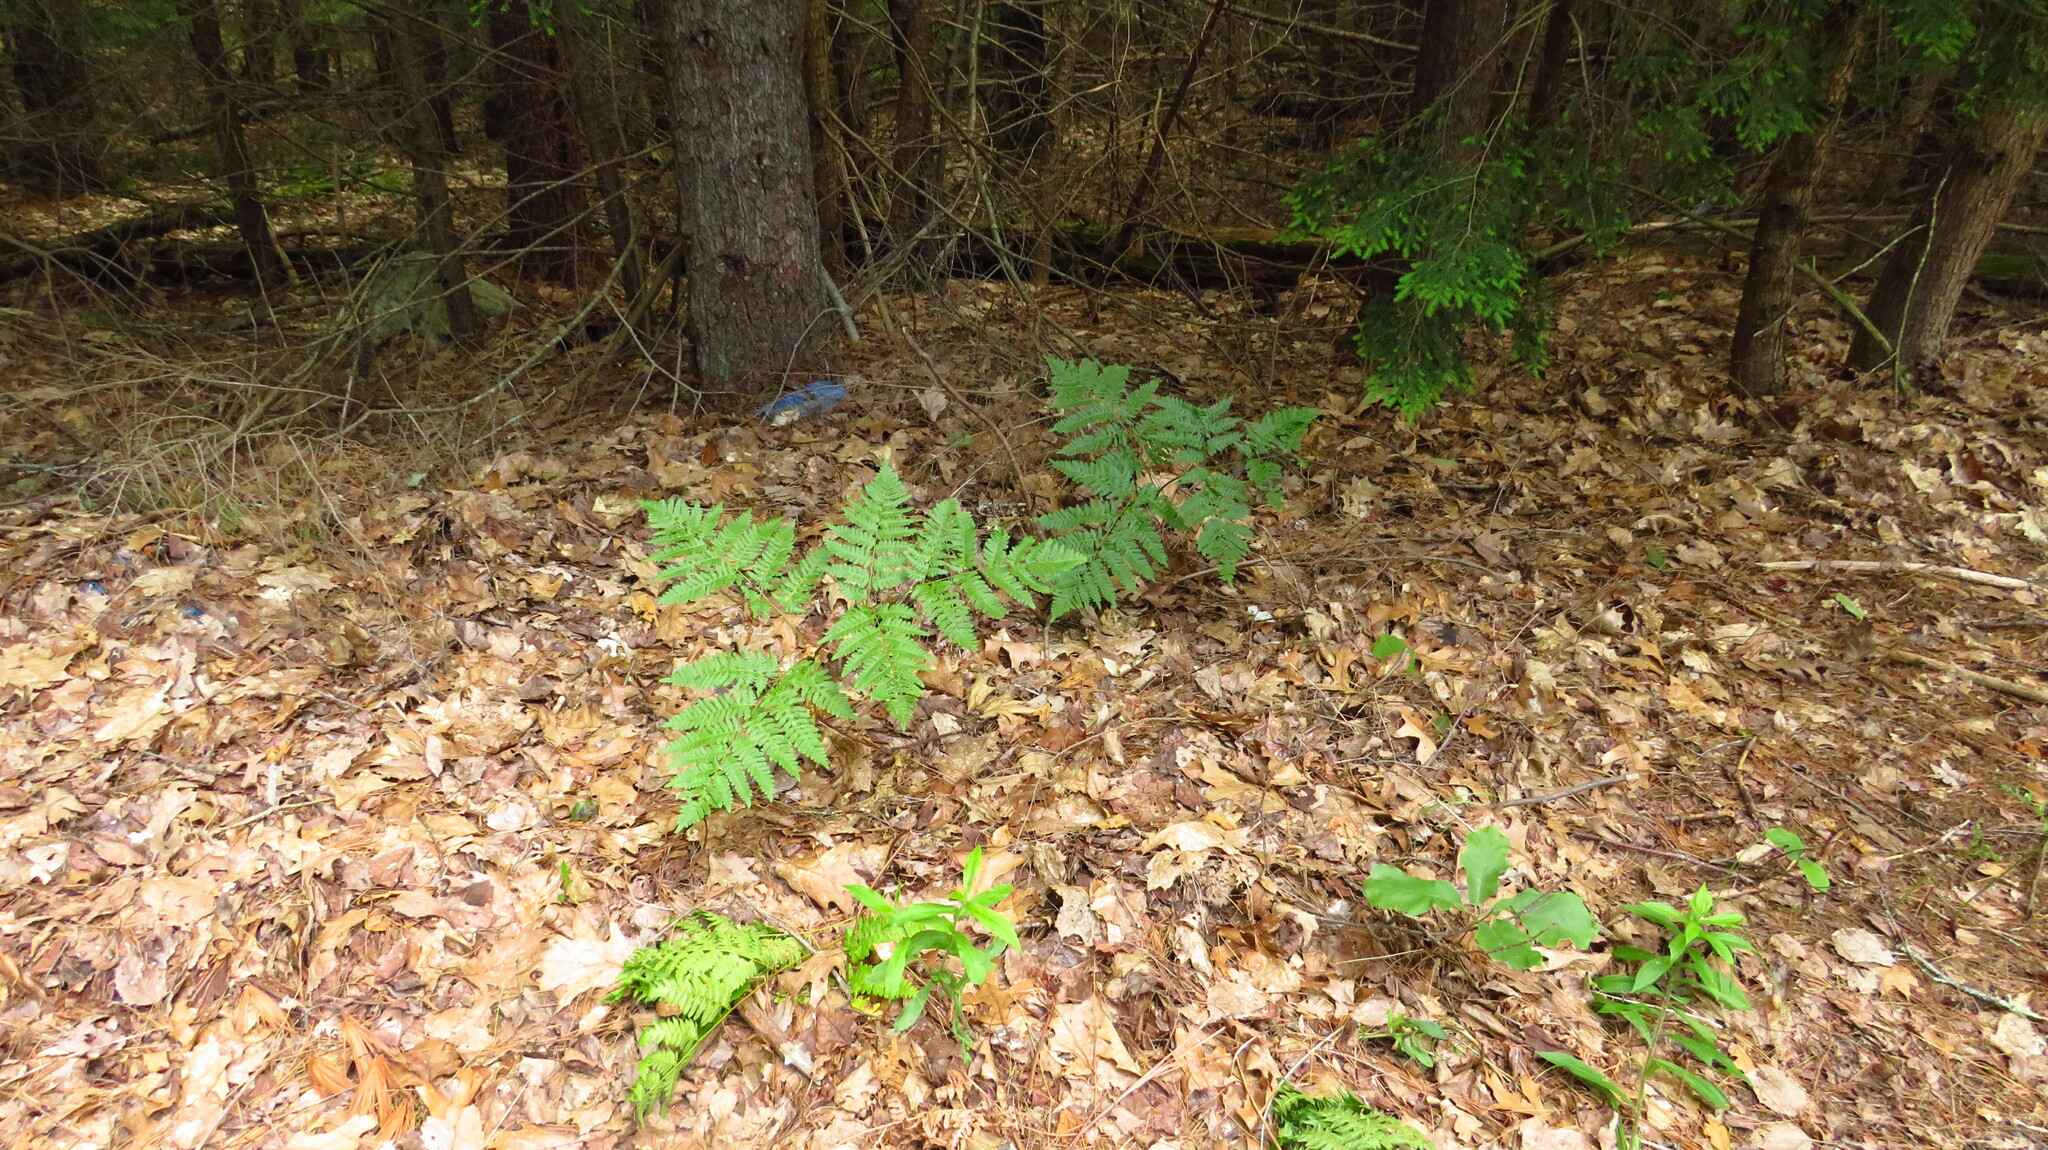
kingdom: Plantae
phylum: Tracheophyta
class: Polypodiopsida
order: Polypodiales
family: Dennstaedtiaceae
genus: Pteridium
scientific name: Pteridium aquilinum
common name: Bracken
